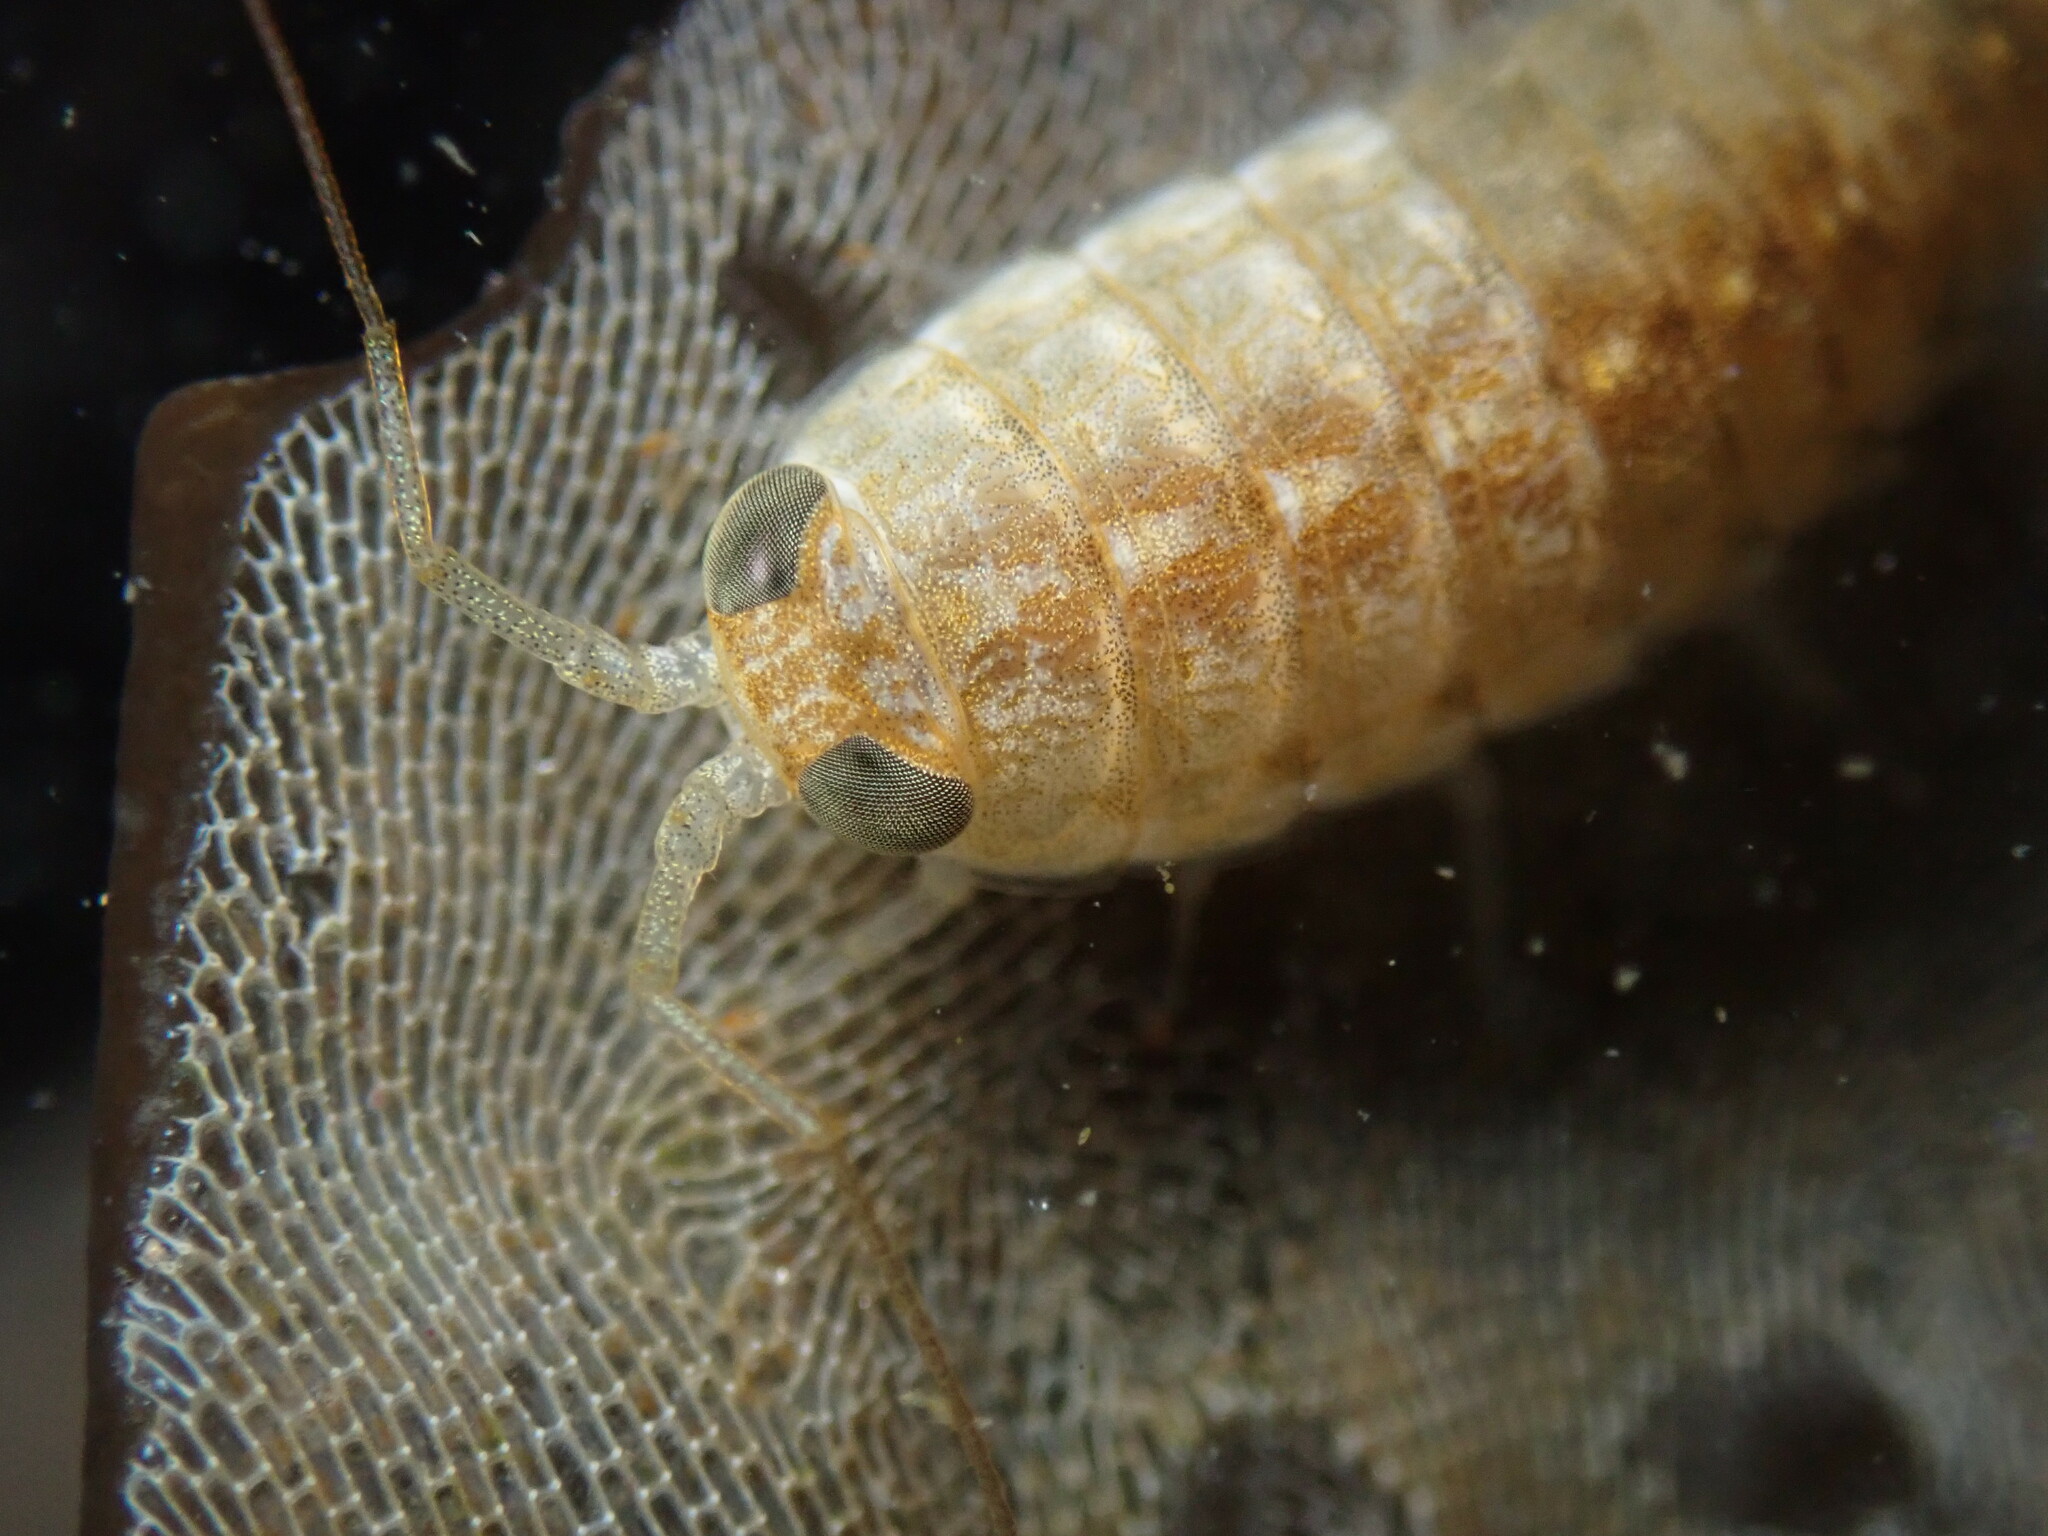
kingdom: Animalia
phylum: Arthropoda
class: Malacostraca
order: Isopoda
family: Ligiidae
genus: Ligia
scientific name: Ligia occidentalis
